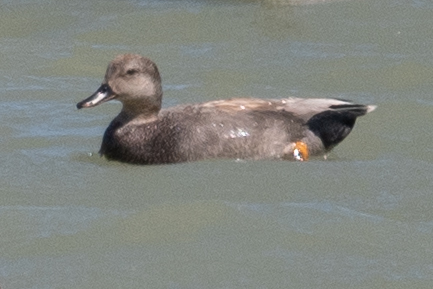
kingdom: Animalia
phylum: Chordata
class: Aves
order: Anseriformes
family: Anatidae
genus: Mareca
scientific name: Mareca strepera
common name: Gadwall
